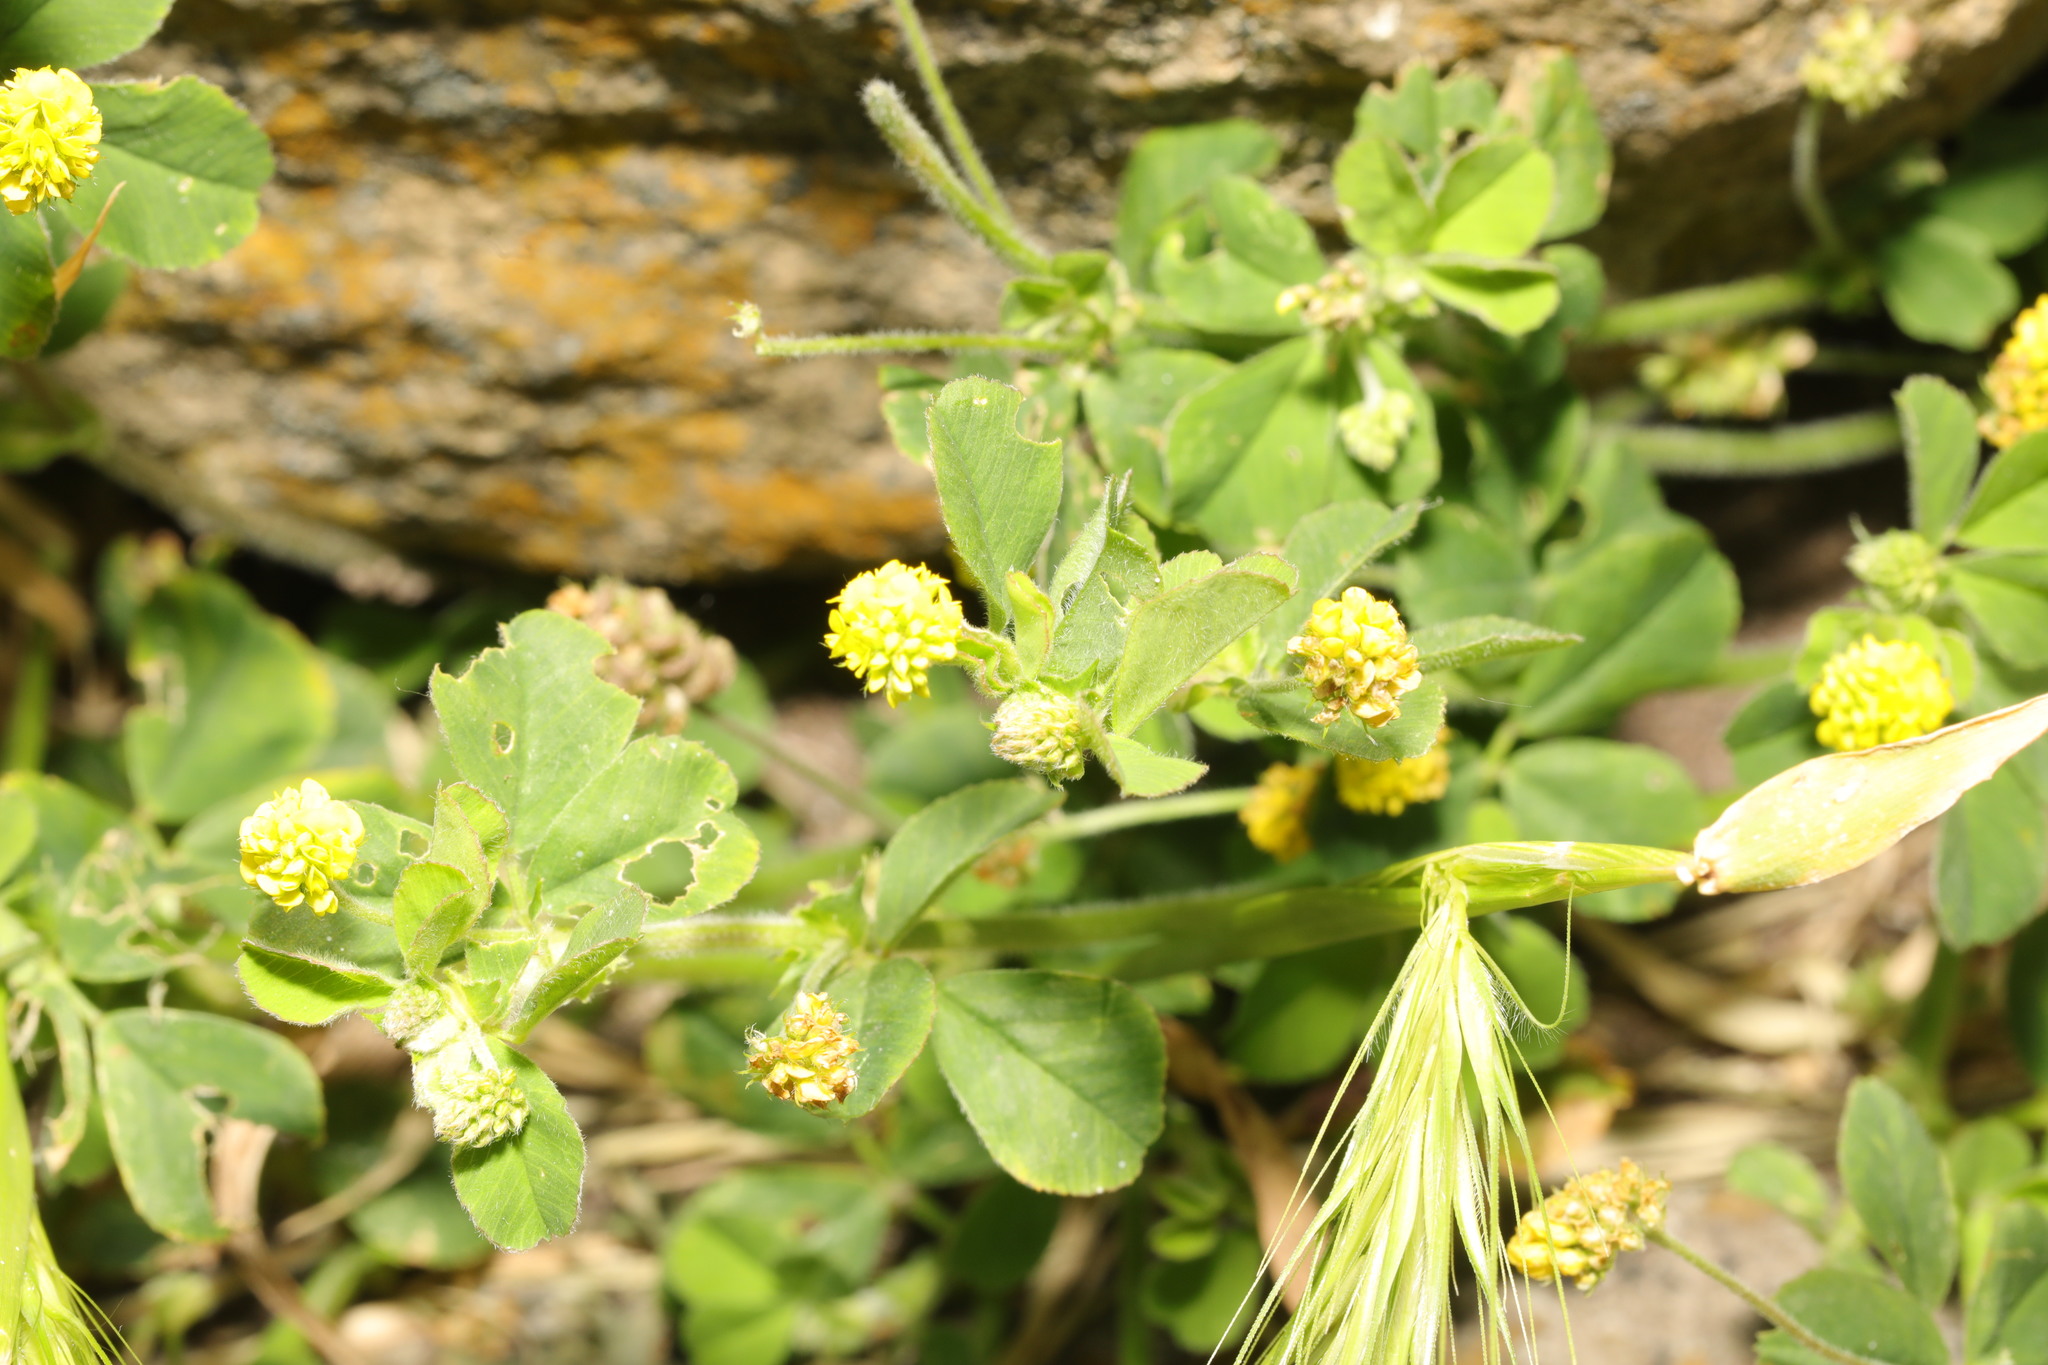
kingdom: Plantae
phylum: Tracheophyta
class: Magnoliopsida
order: Fabales
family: Fabaceae
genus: Medicago
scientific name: Medicago lupulina
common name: Black medick
